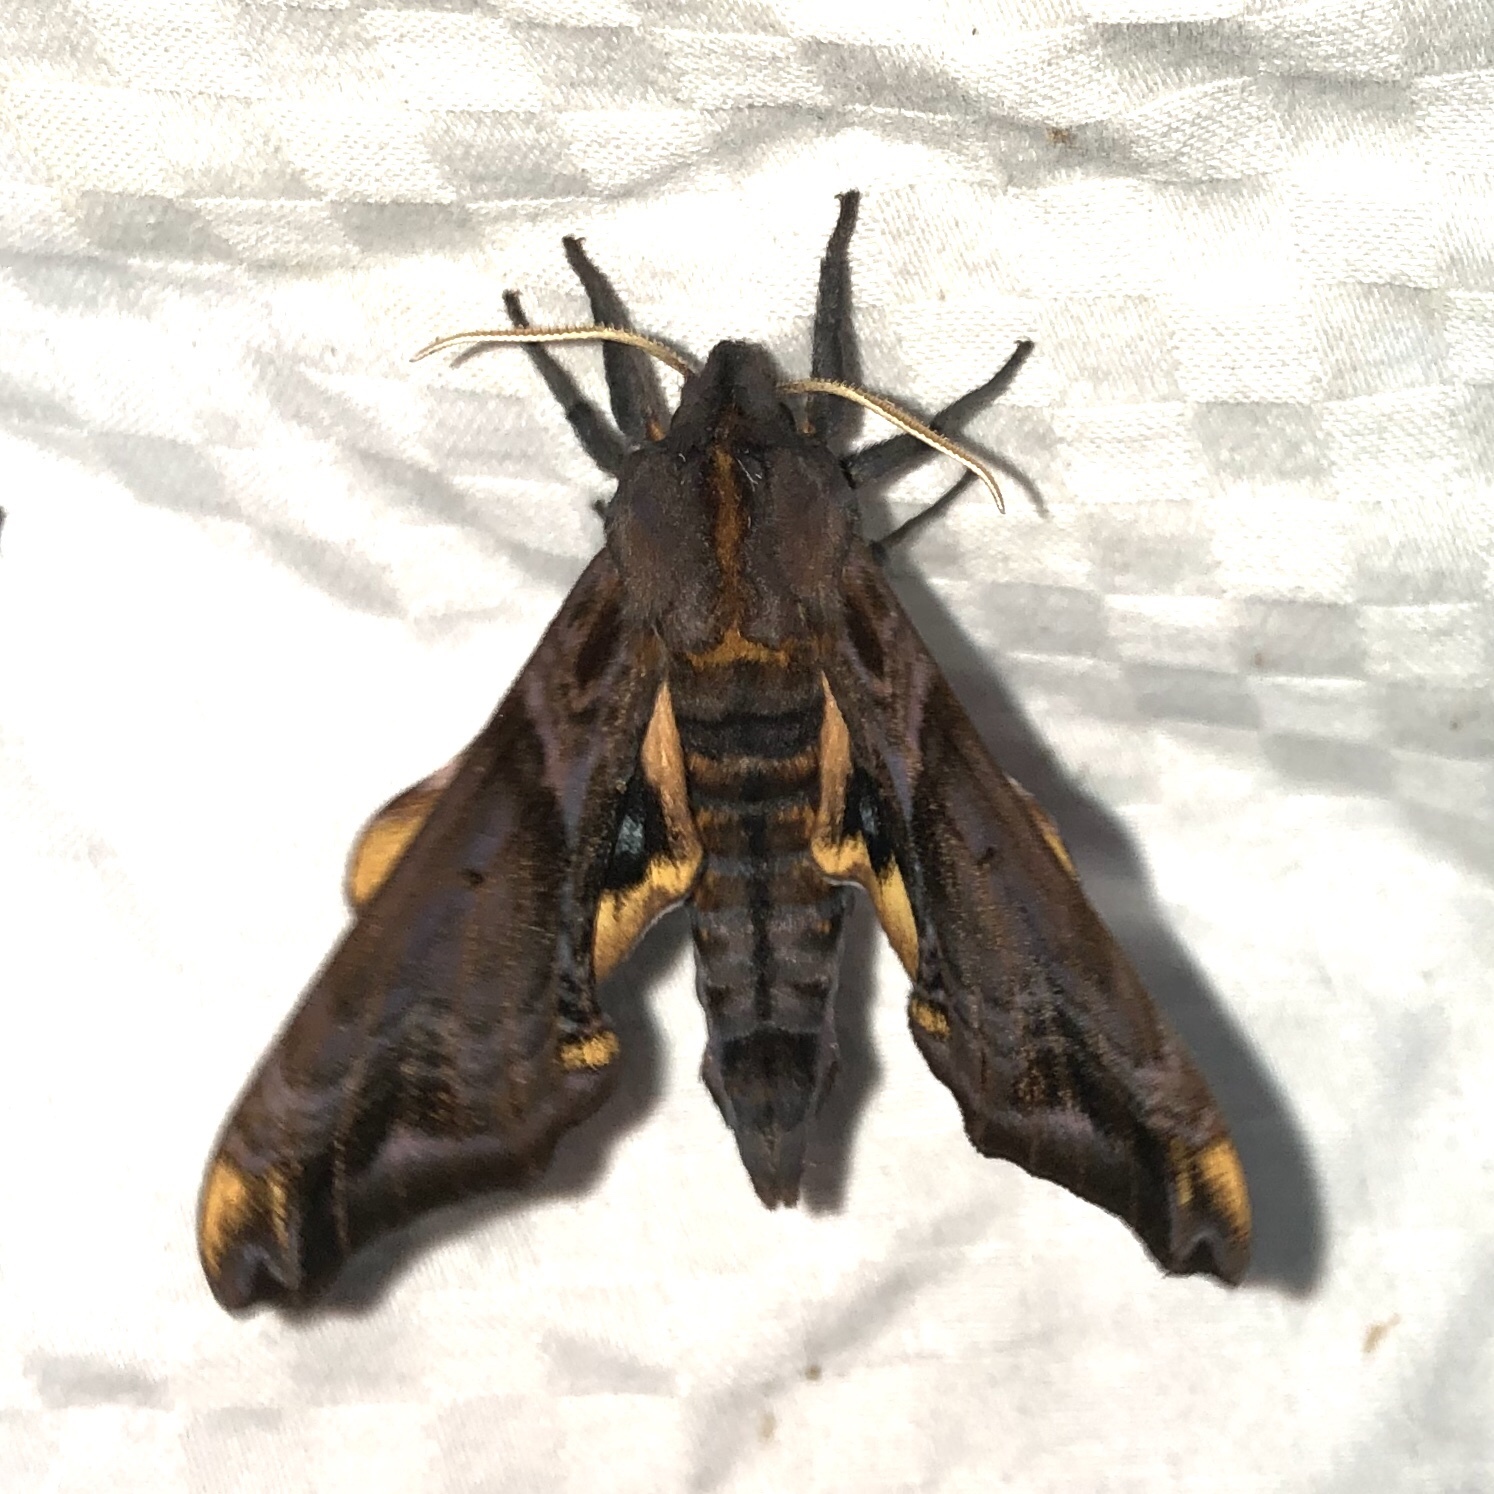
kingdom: Animalia
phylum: Arthropoda
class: Insecta
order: Lepidoptera
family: Sphingidae
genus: Paonias
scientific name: Paonias myops
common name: Small-eyed sphinx
